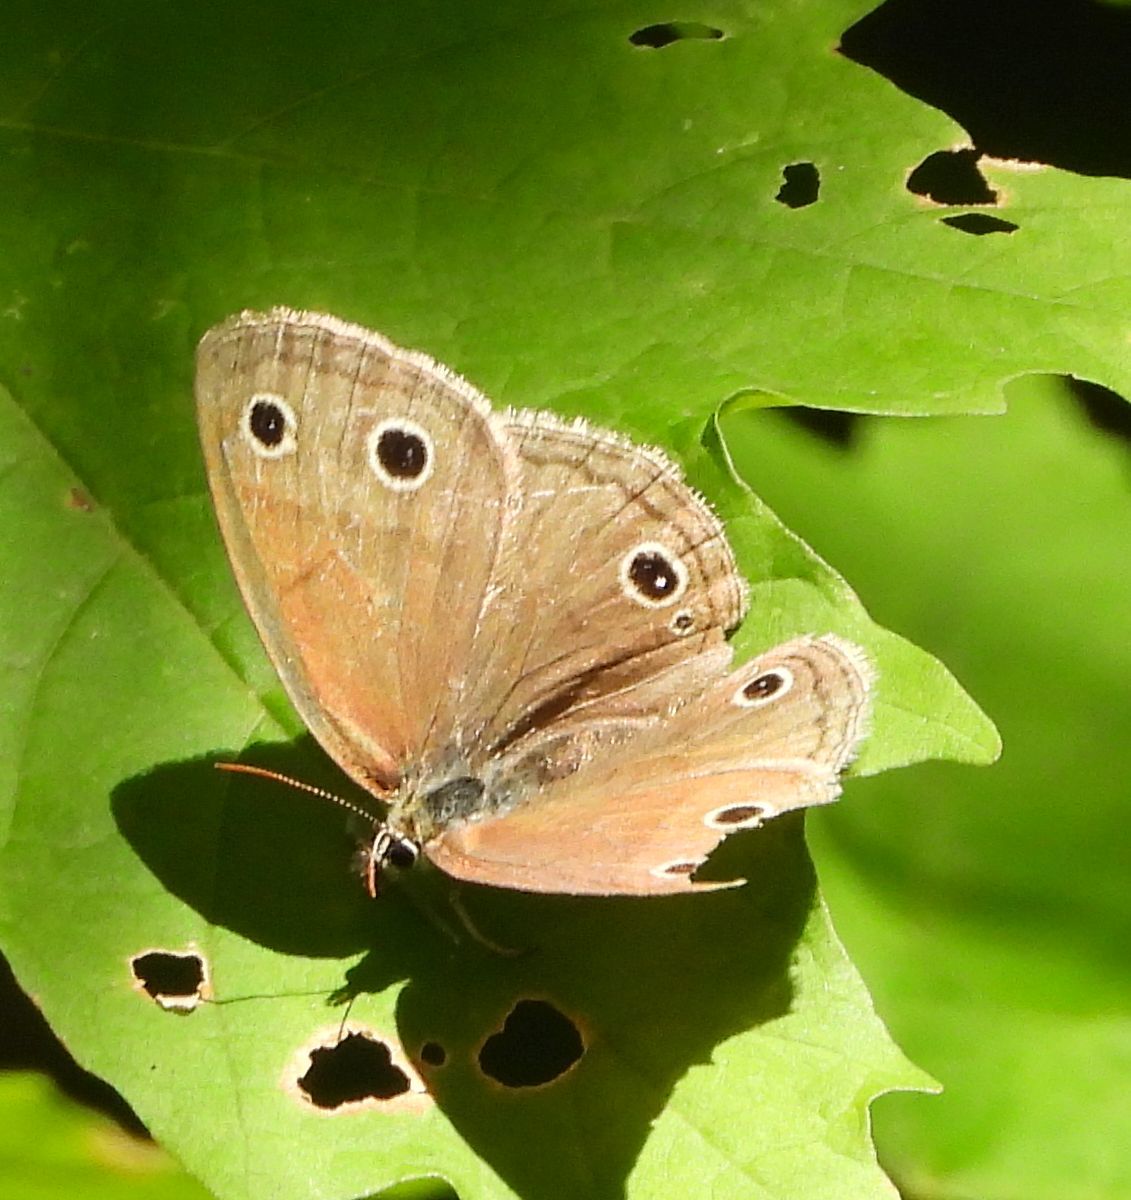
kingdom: Animalia
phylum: Arthropoda
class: Insecta
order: Lepidoptera
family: Nymphalidae
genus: Euptychia
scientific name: Euptychia cymela
